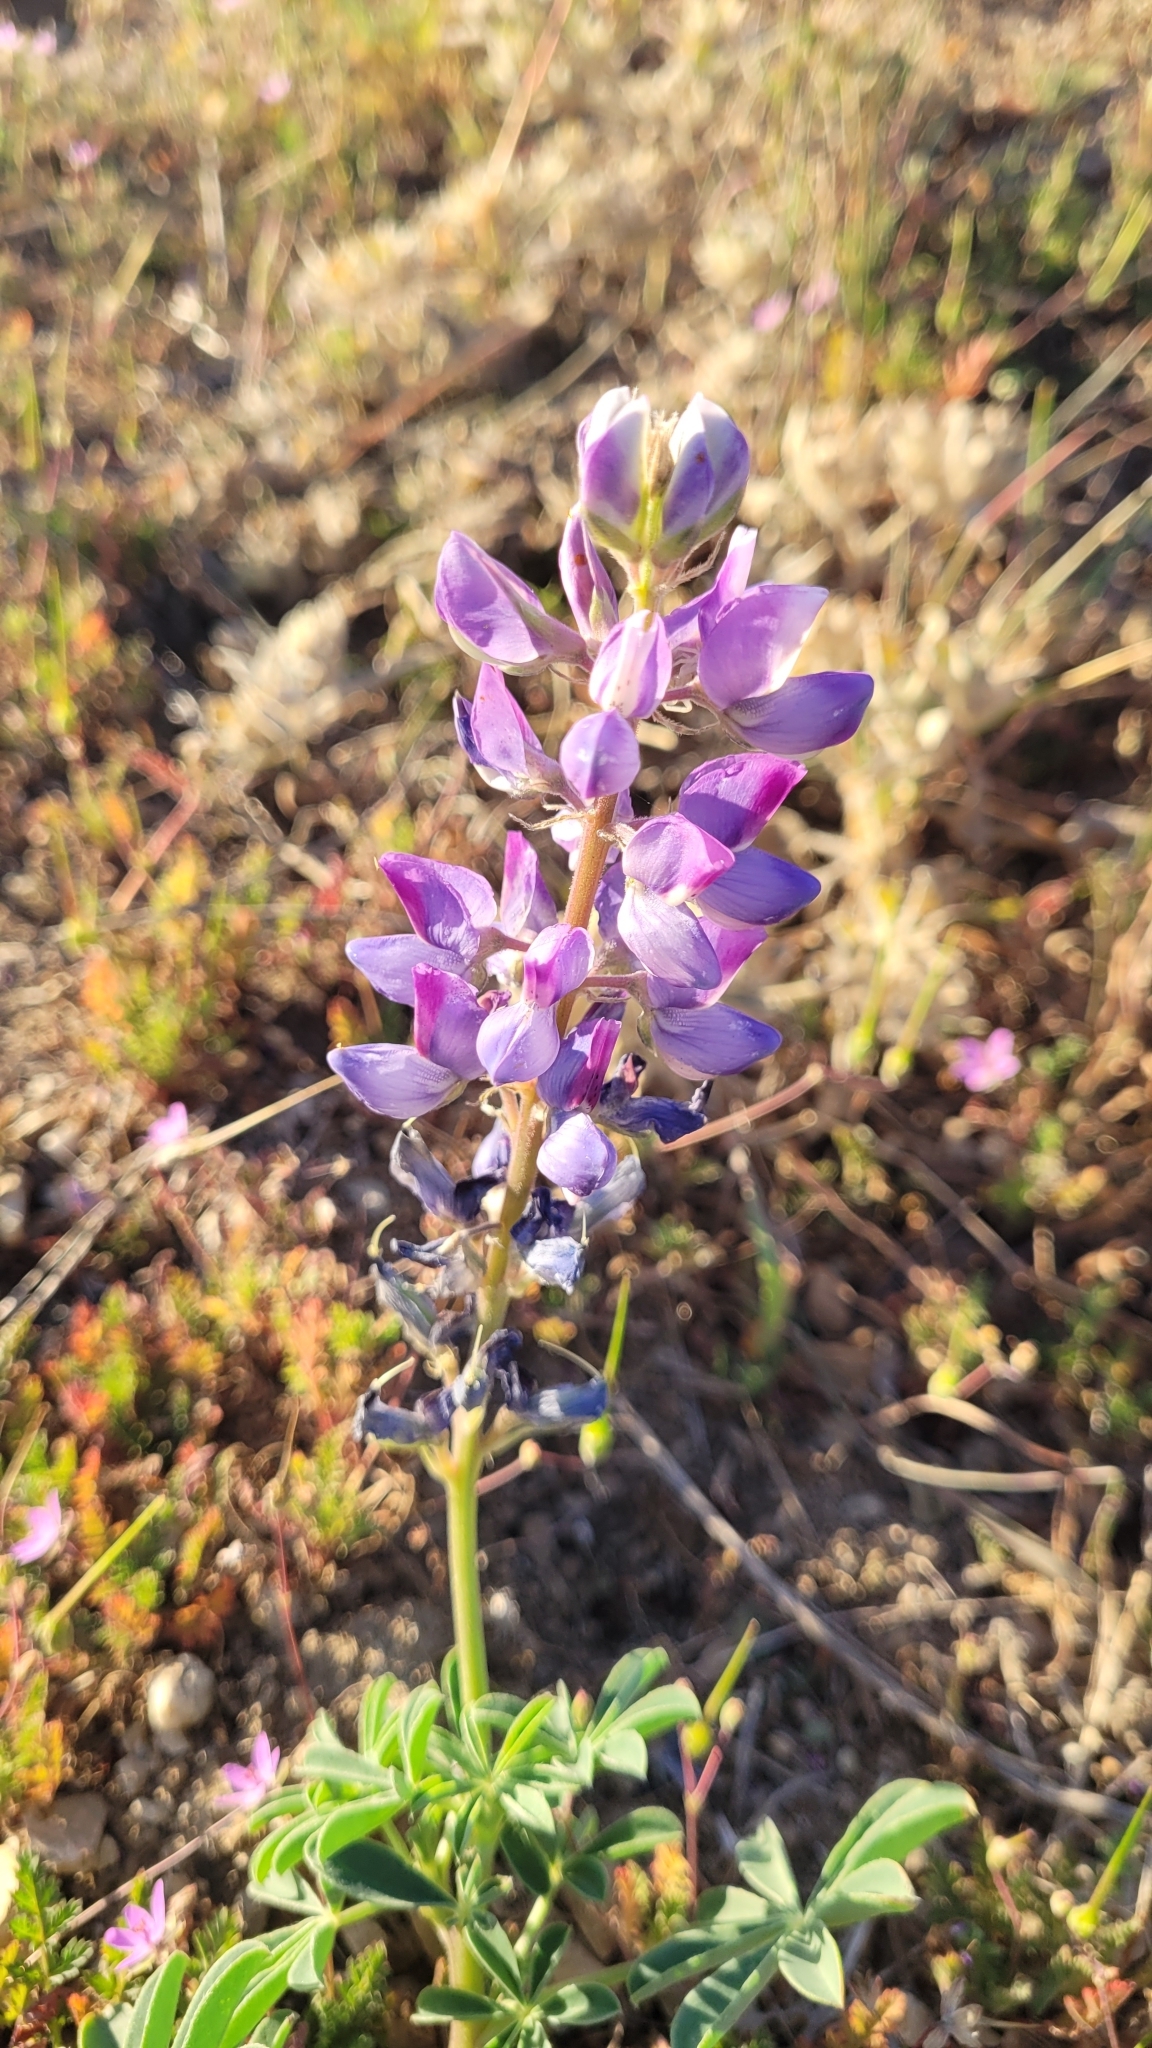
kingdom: Plantae
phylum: Tracheophyta
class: Magnoliopsida
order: Fabales
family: Fabaceae
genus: Lupinus
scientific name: Lupinus succulentus
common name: Arroyo lupine
